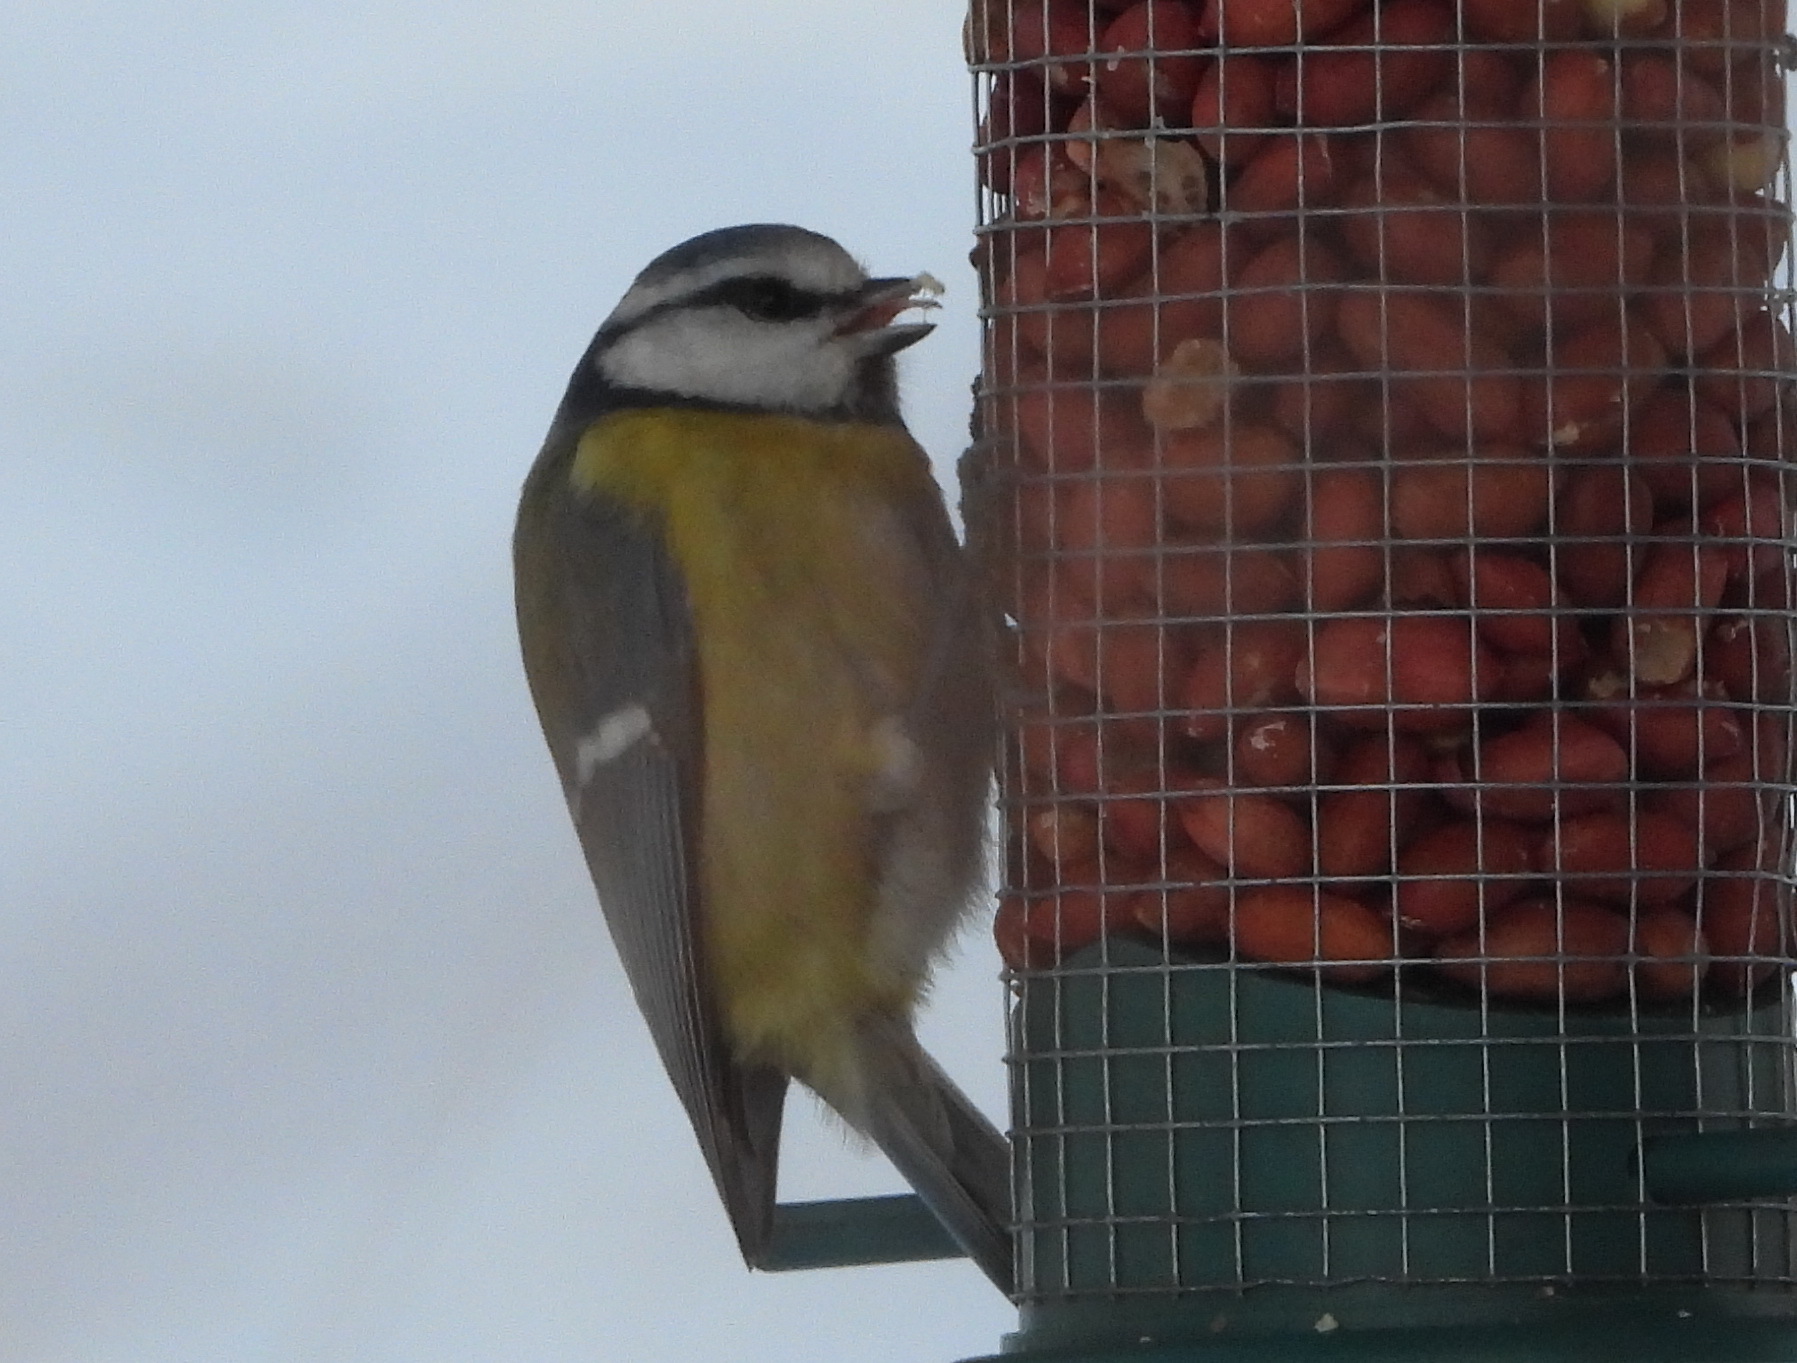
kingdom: Animalia
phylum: Chordata
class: Aves
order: Passeriformes
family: Paridae
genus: Cyanistes
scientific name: Cyanistes caeruleus
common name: Eurasian blue tit
